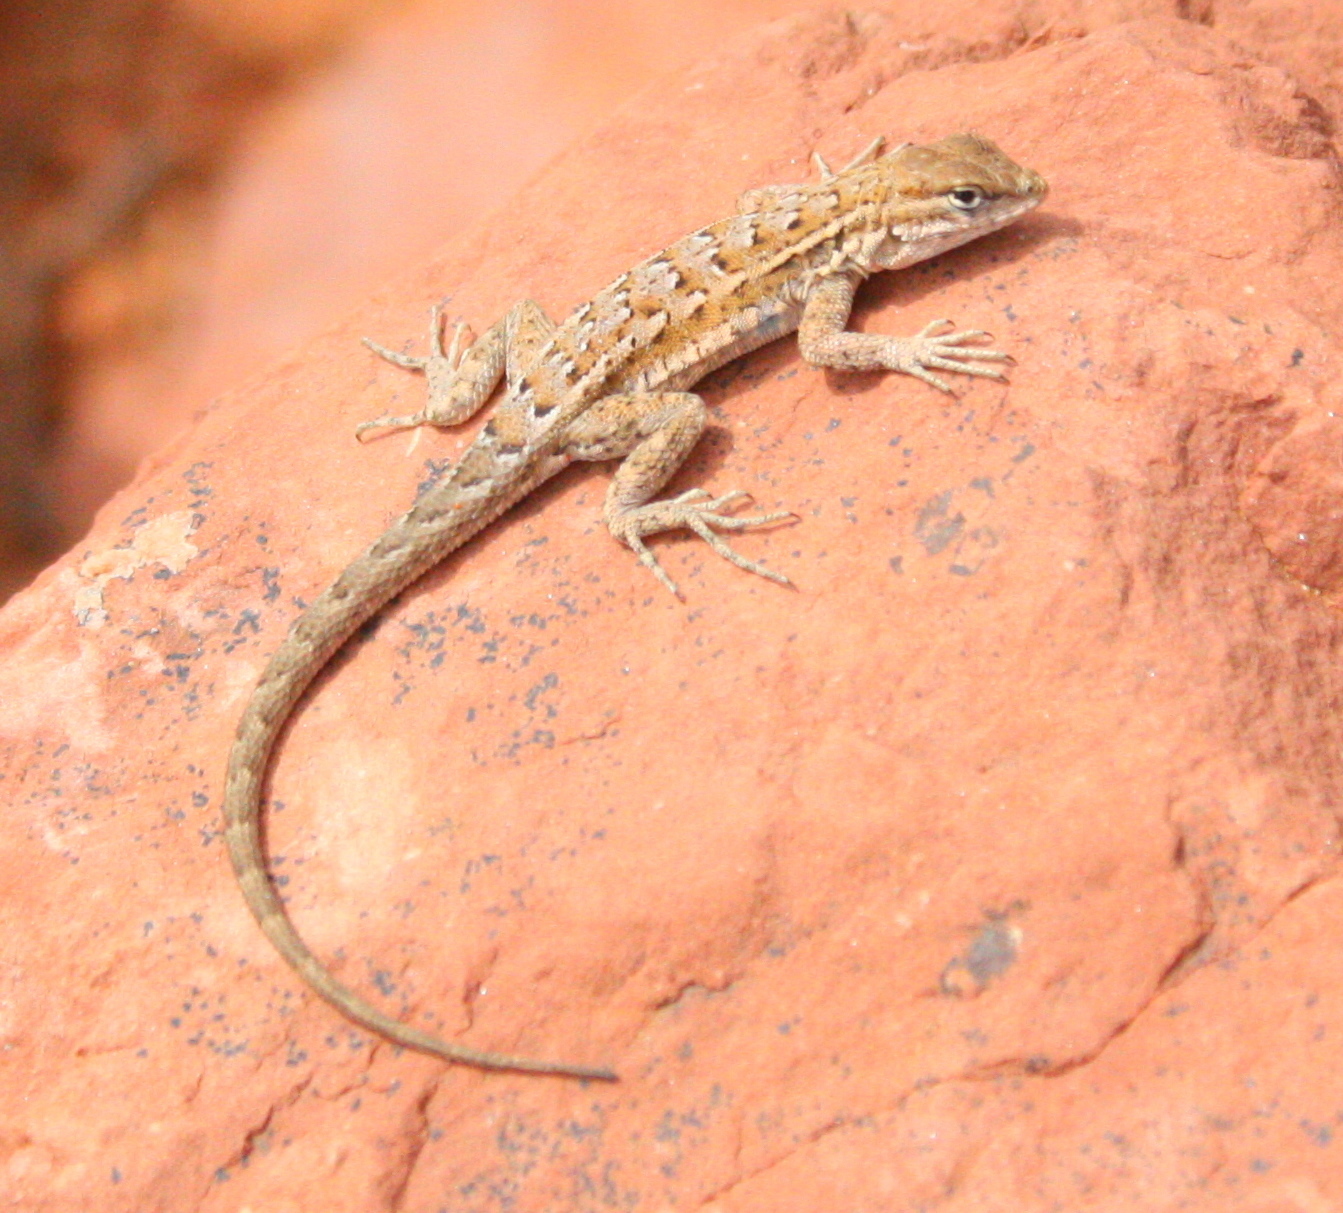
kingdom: Animalia
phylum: Chordata
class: Squamata
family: Phrynosomatidae
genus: Uta
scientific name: Uta stansburiana
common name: Side-blotched lizard
